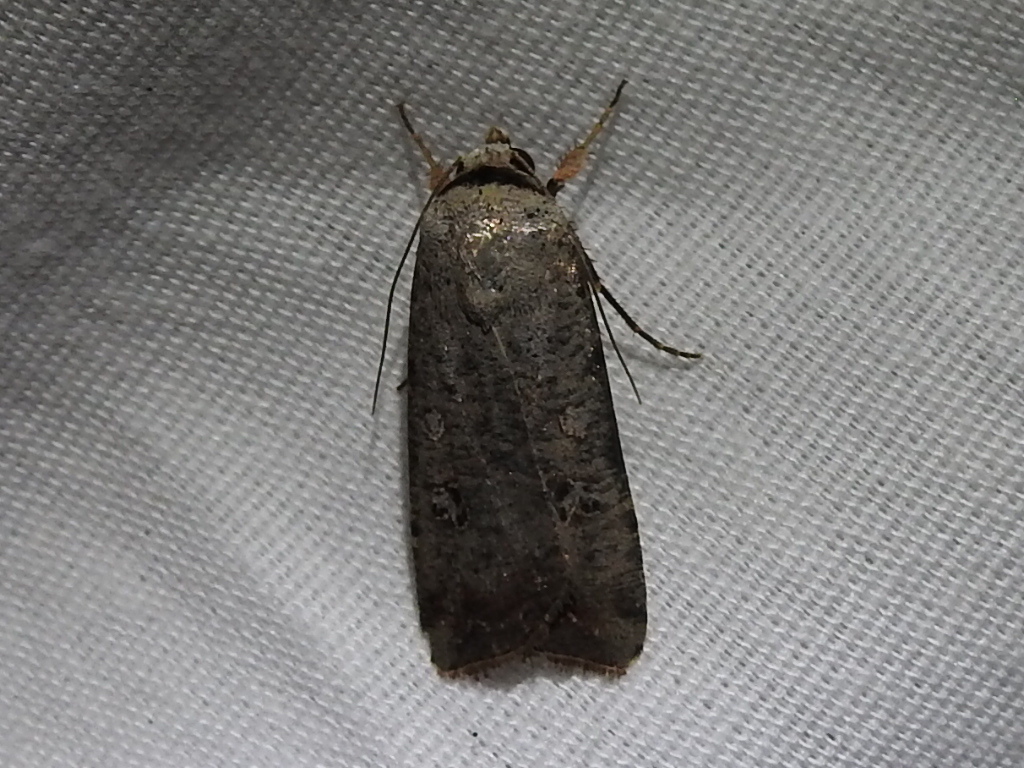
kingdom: Animalia
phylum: Arthropoda
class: Insecta
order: Lepidoptera
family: Noctuidae
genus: Anicla
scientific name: Anicla infecta
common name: Green cutworm
